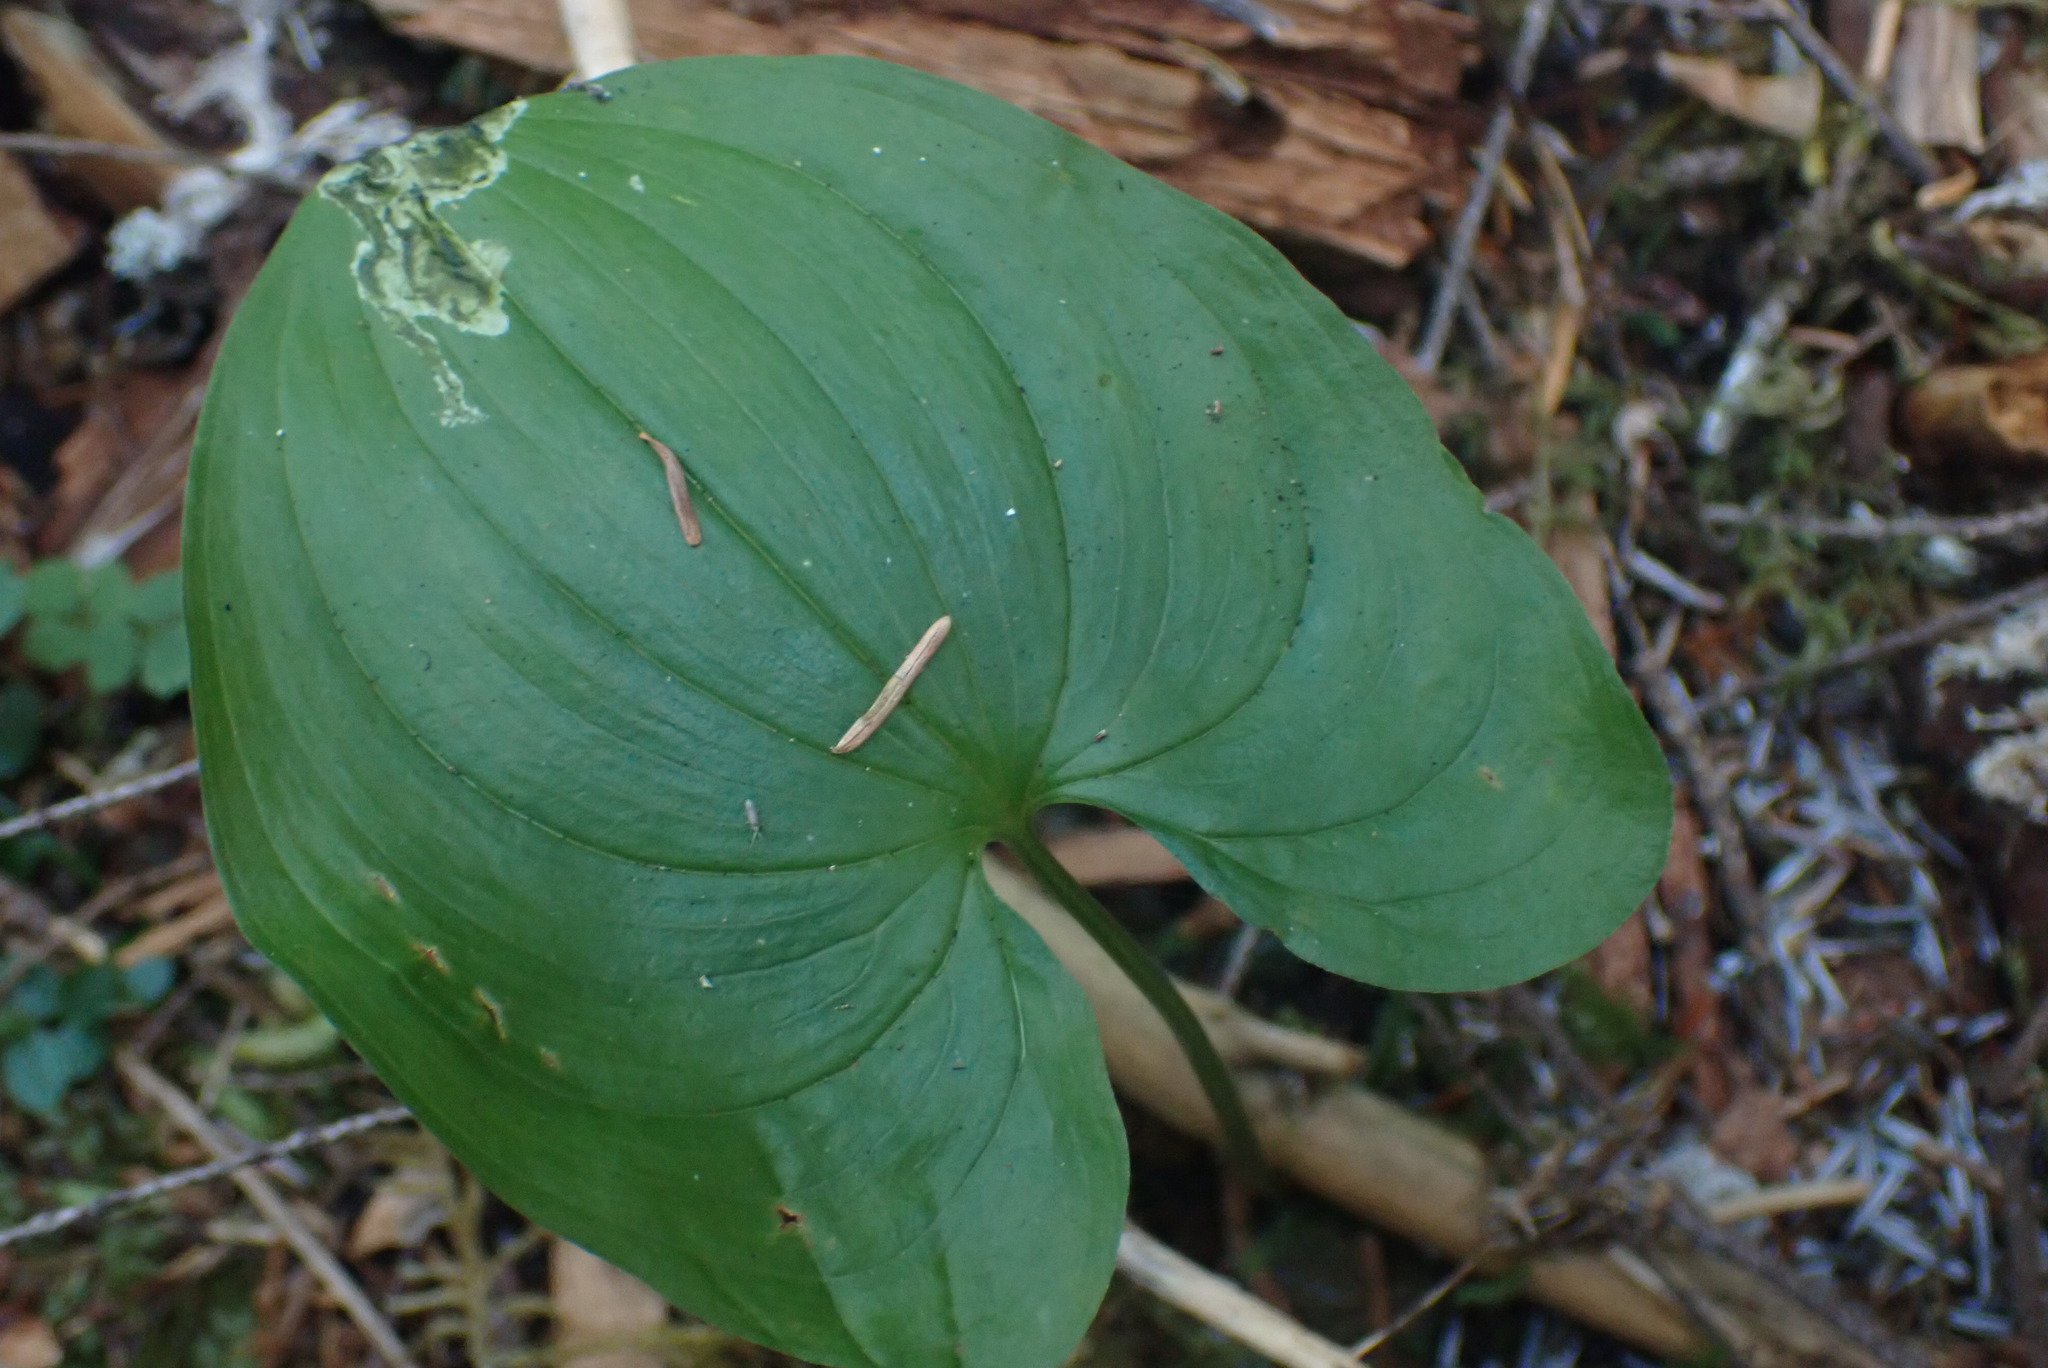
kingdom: Plantae
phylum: Tracheophyta
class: Liliopsida
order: Asparagales
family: Asparagaceae
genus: Maianthemum
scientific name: Maianthemum dilatatum
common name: False lily-of-the-valley
